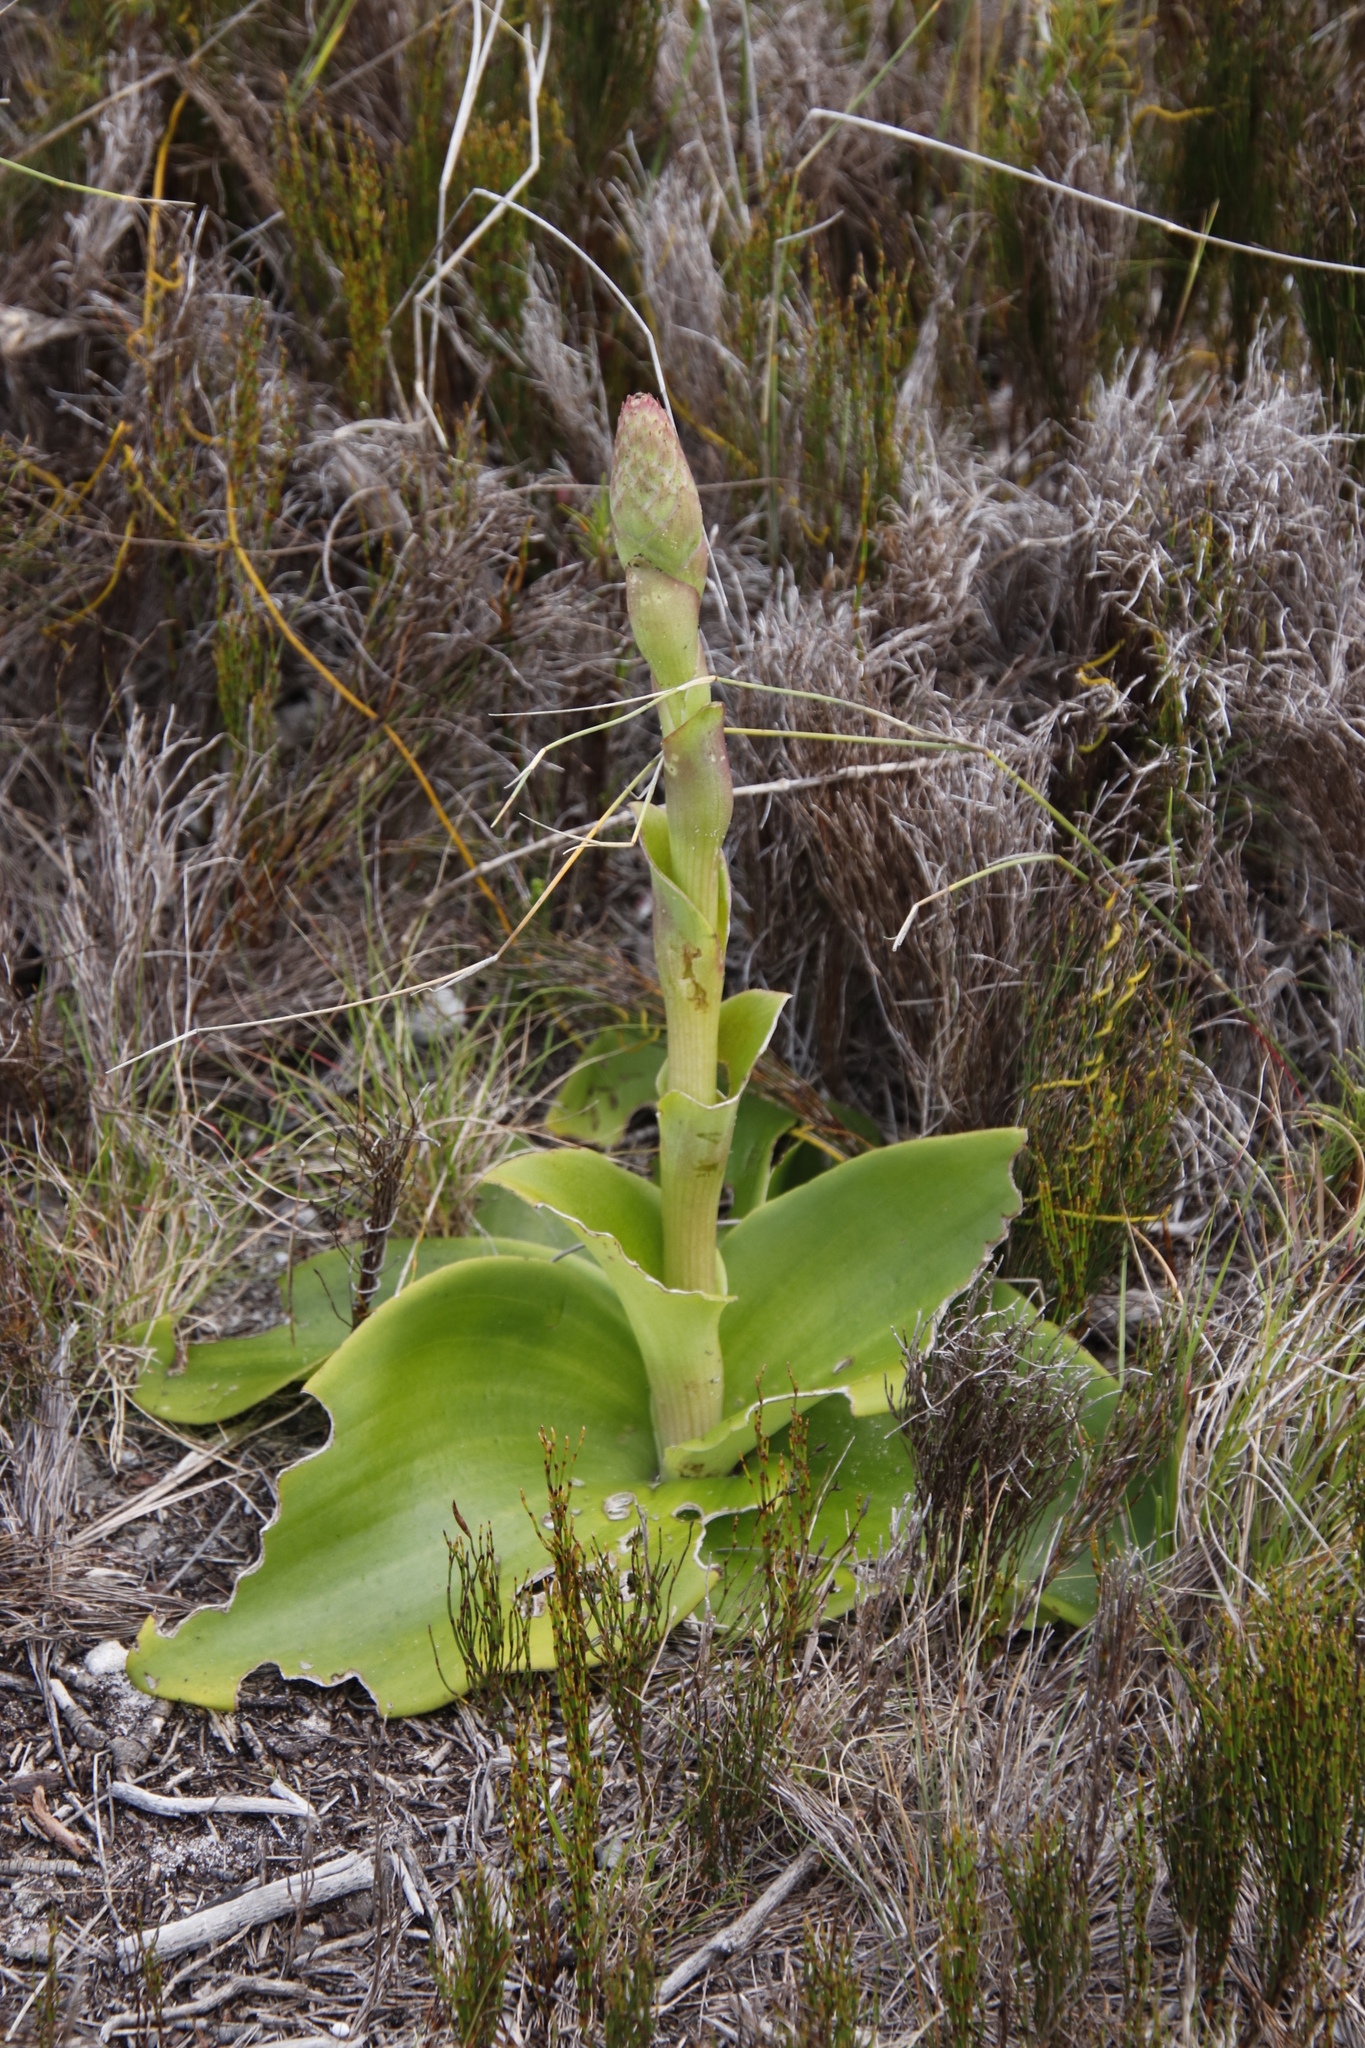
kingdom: Plantae
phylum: Tracheophyta
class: Liliopsida
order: Asparagales
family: Orchidaceae
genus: Satyrium
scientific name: Satyrium carneum
